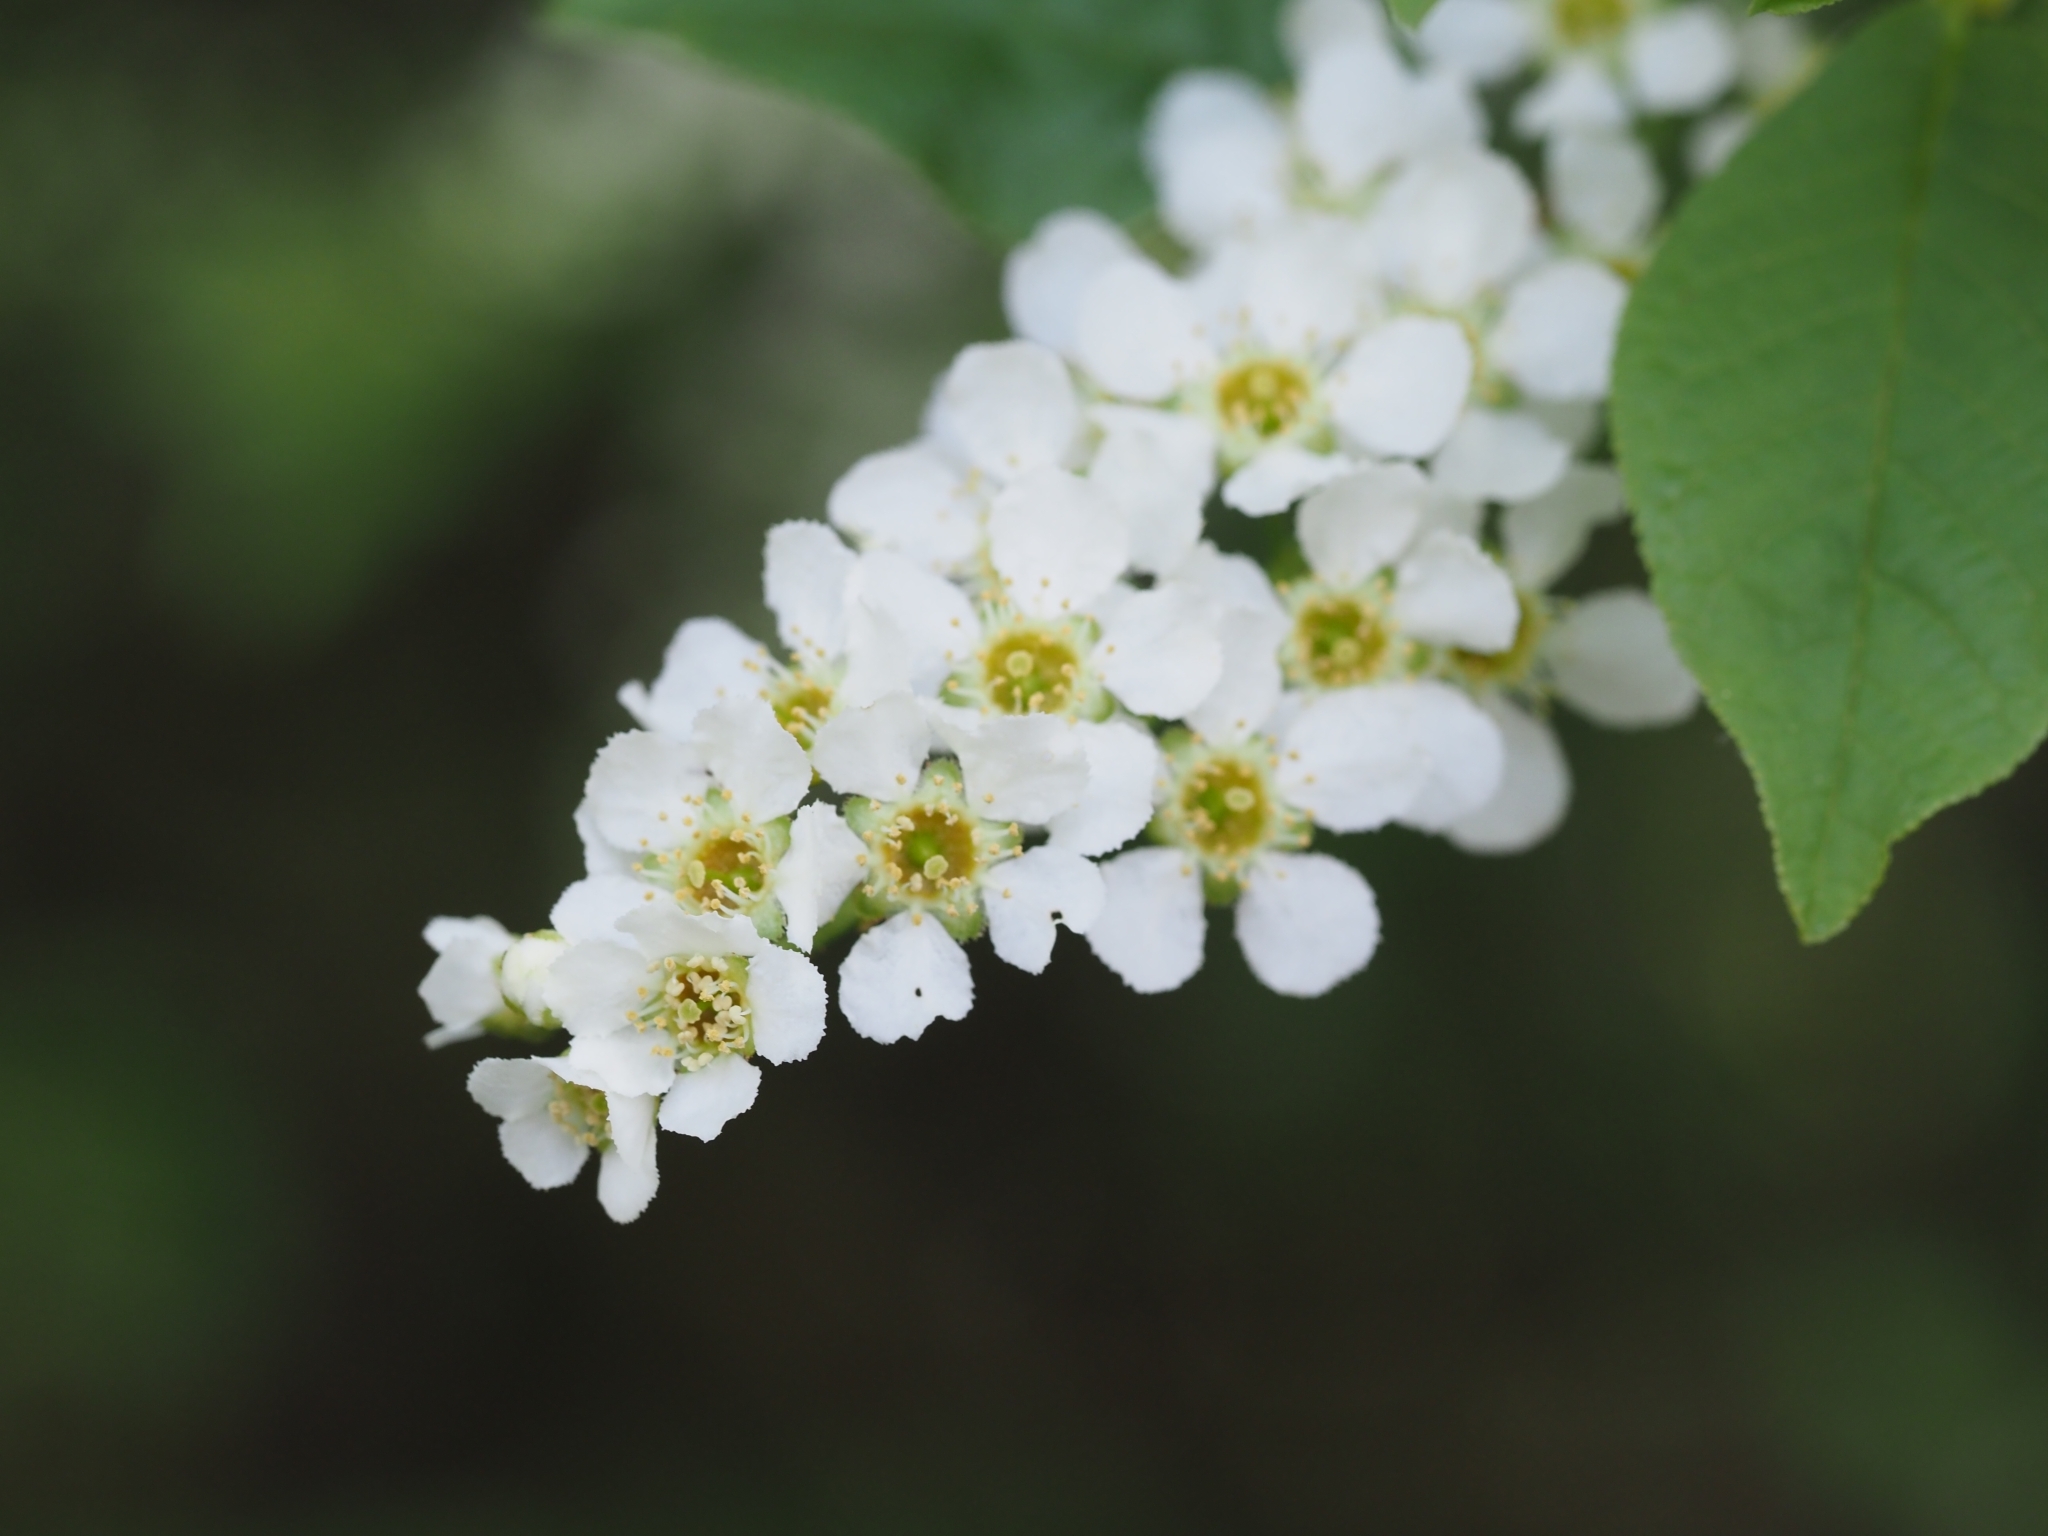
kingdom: Plantae
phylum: Tracheophyta
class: Magnoliopsida
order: Rosales
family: Rosaceae
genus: Prunus
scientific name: Prunus padus
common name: Bird cherry
